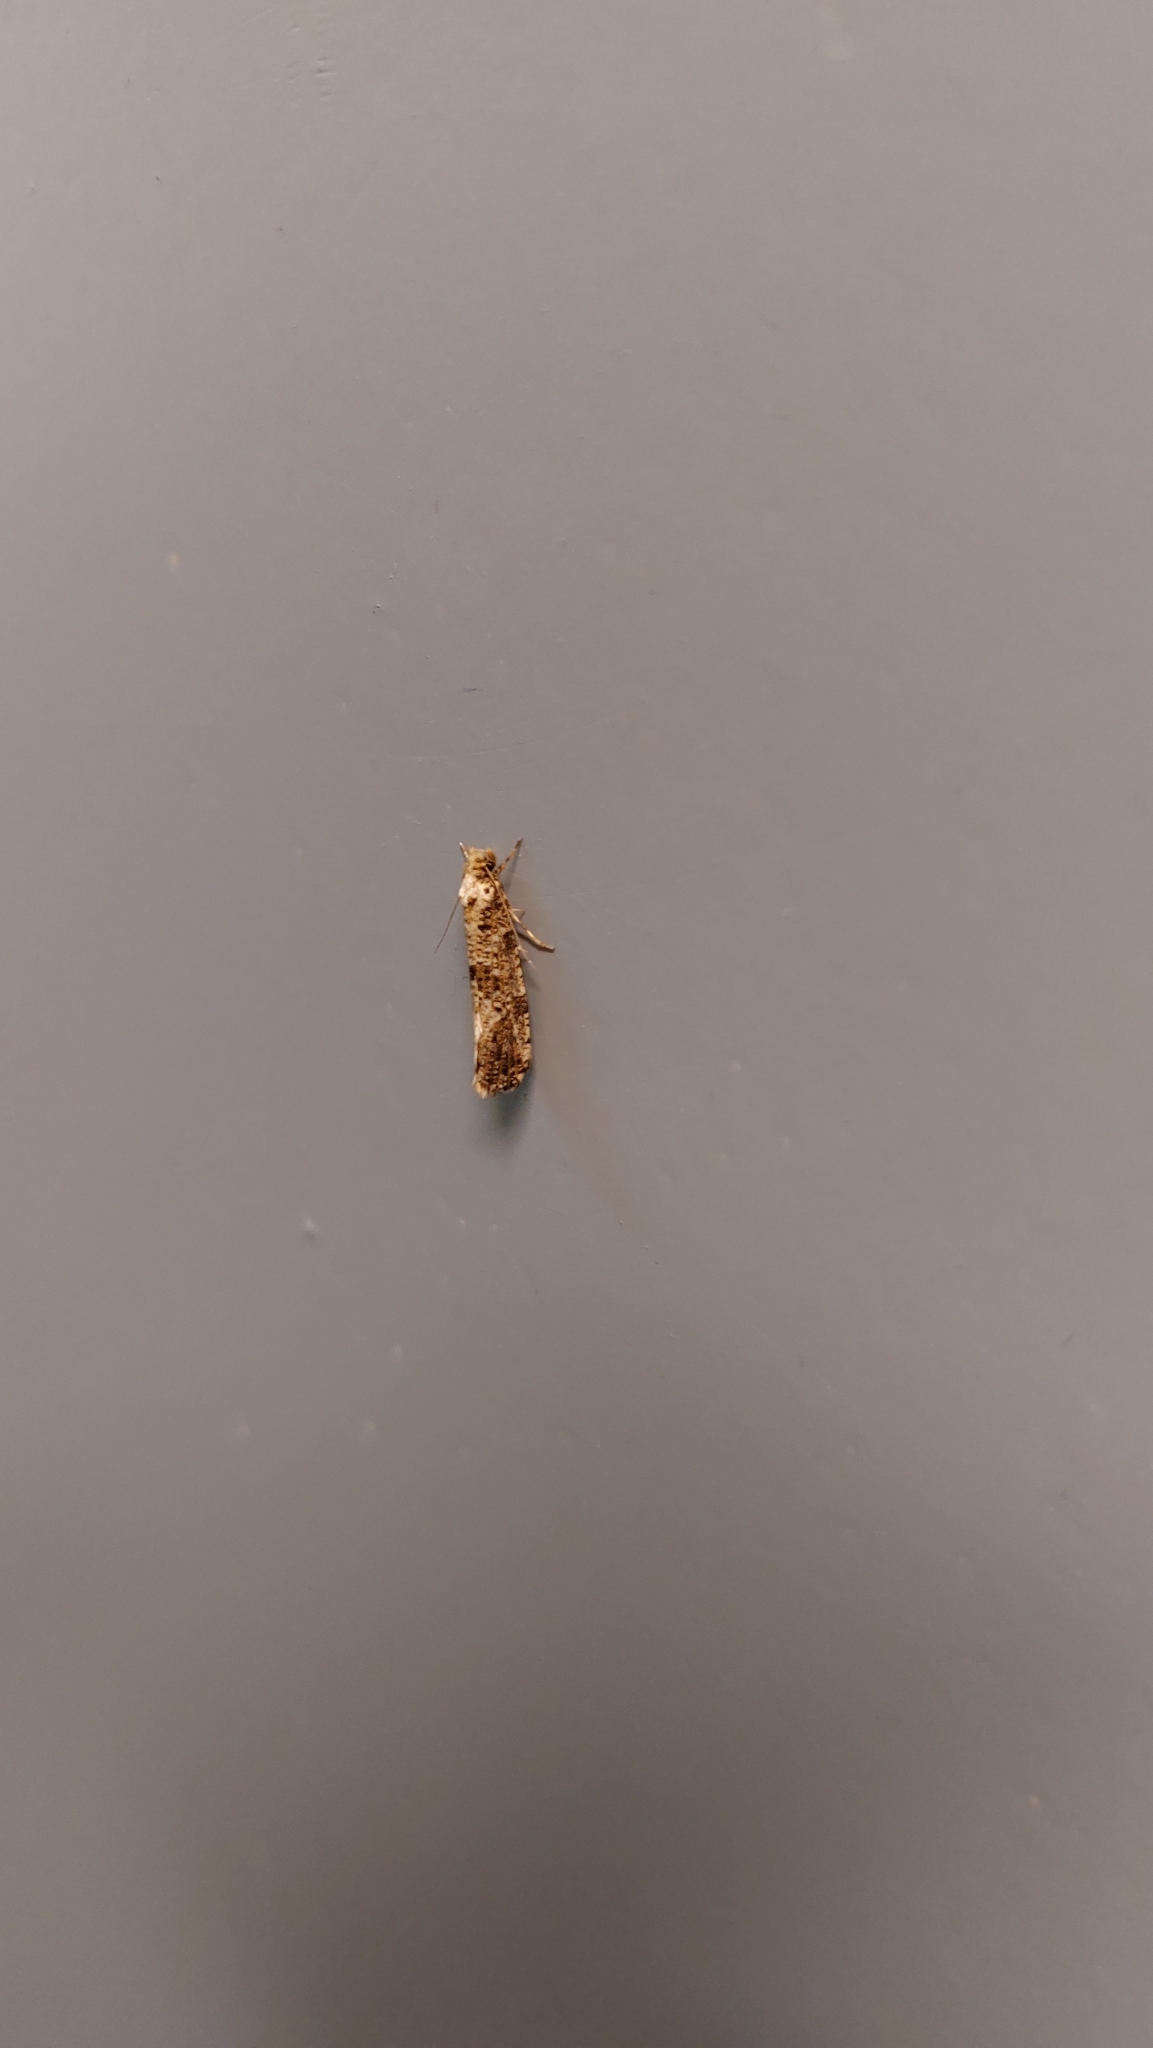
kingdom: Animalia
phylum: Arthropoda
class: Insecta
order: Lepidoptera
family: Tineidae
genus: Morophaga
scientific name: Morophaga choragella
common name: Large clothes
